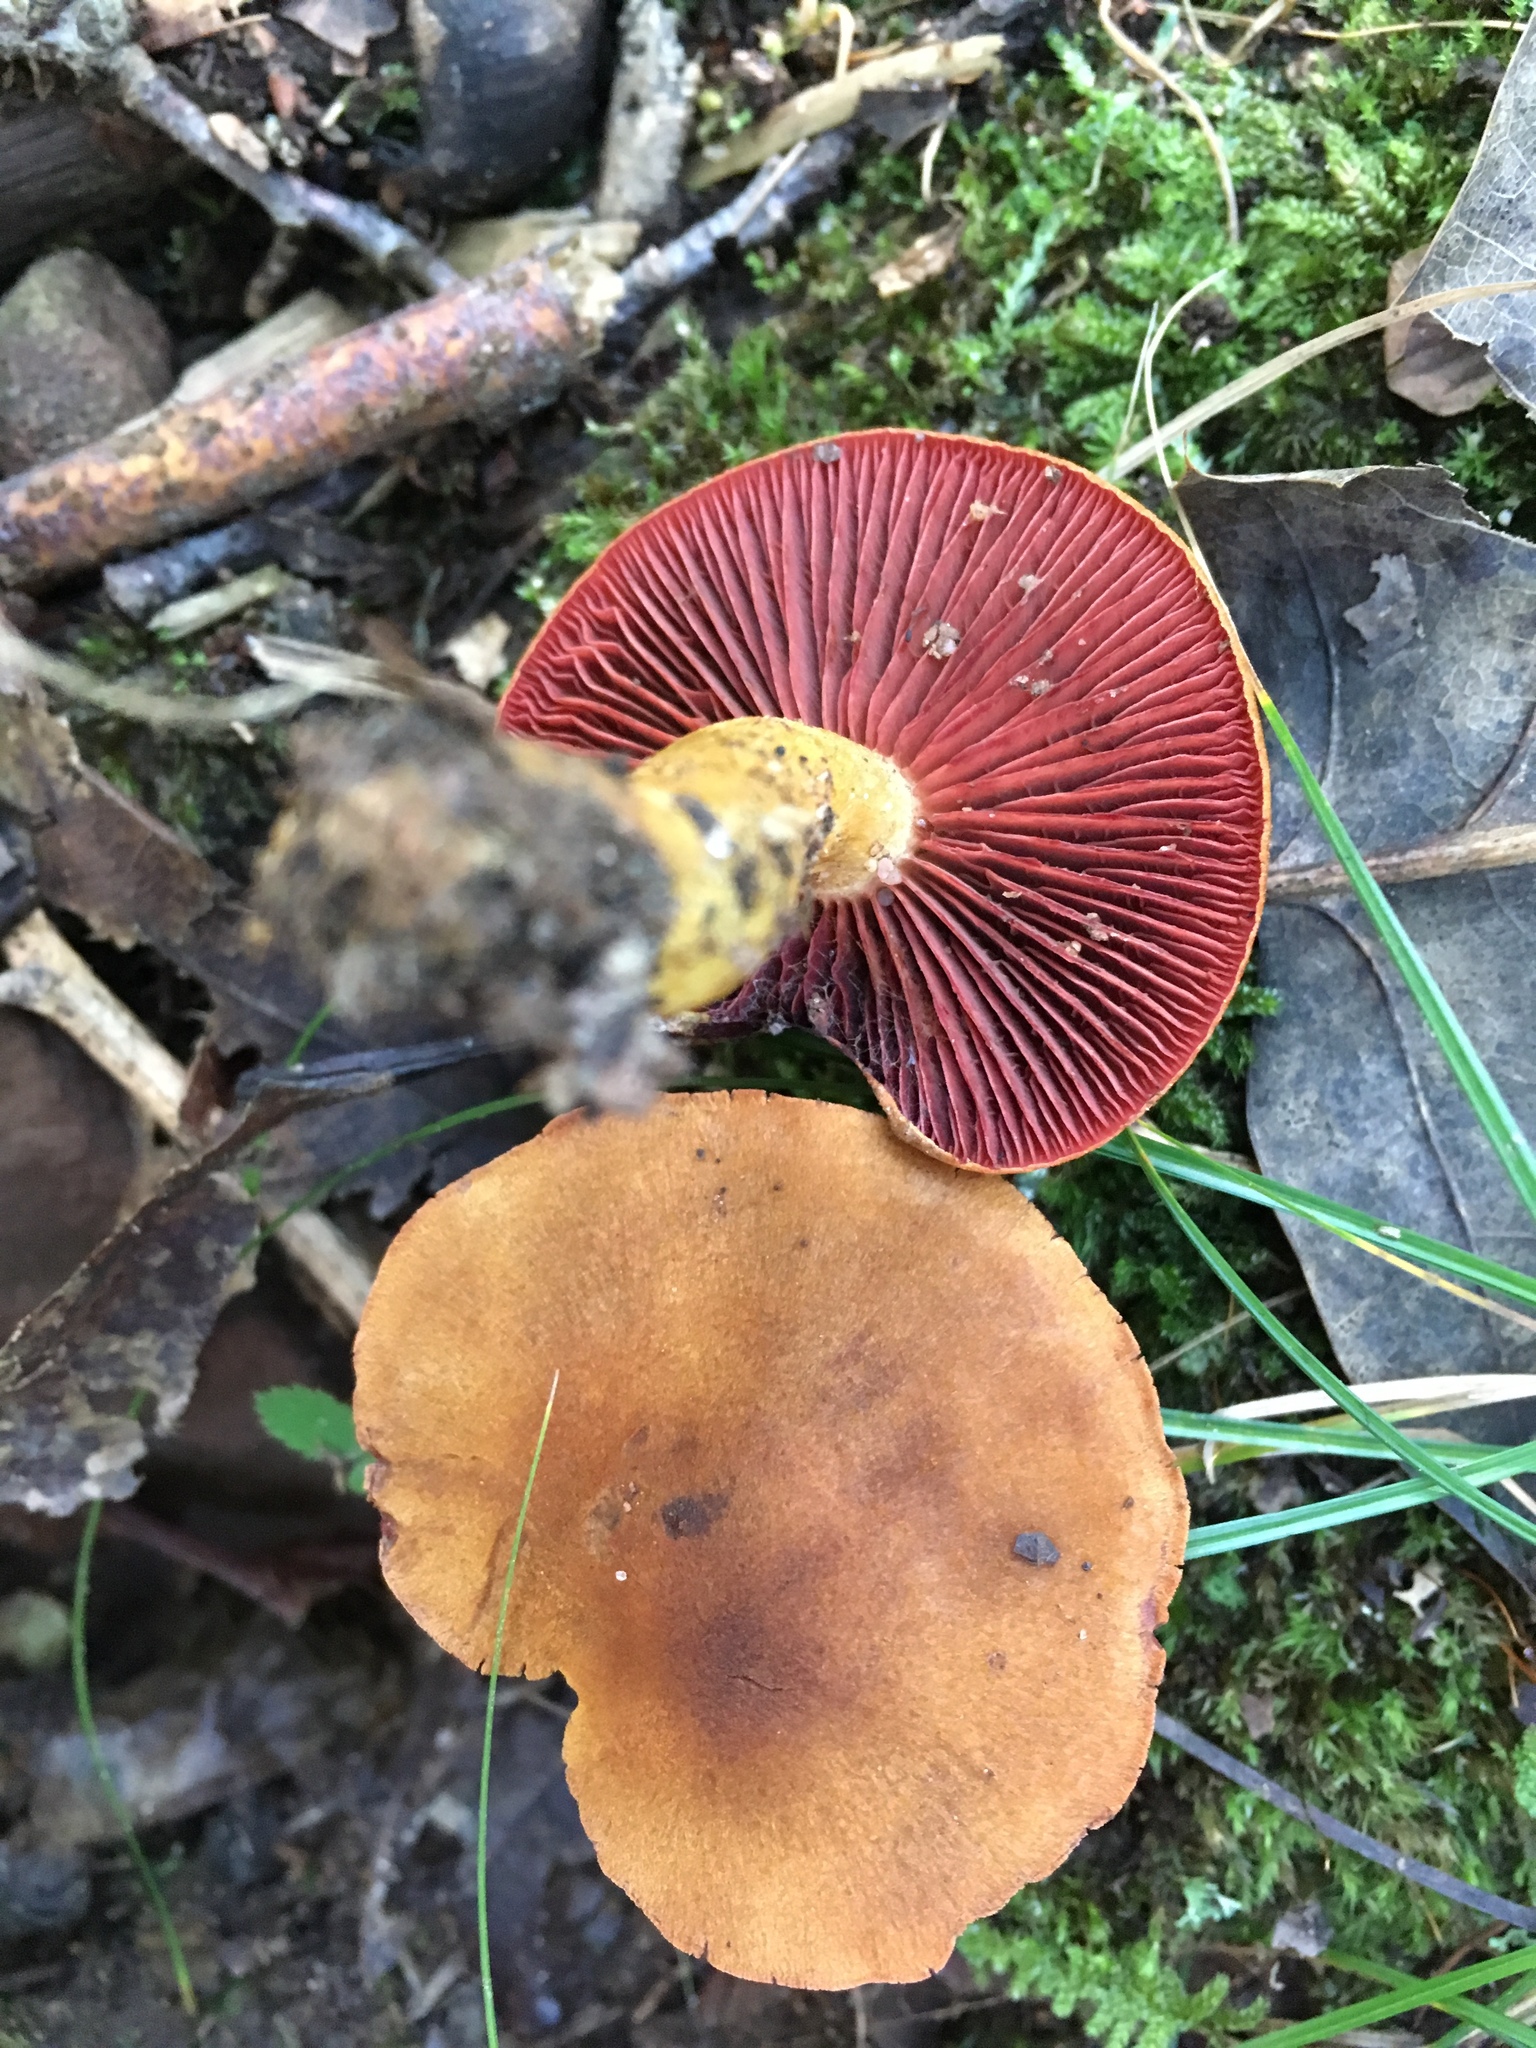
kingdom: Fungi
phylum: Basidiomycota
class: Agaricomycetes
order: Agaricales
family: Cortinariaceae
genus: Cortinarius
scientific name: Cortinarius semisanguineus
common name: Surprise webcap
